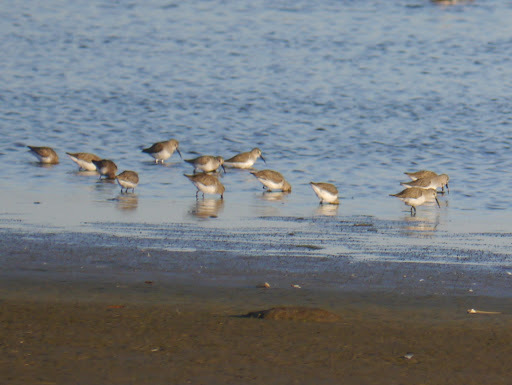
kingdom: Animalia
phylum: Chordata
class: Aves
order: Charadriiformes
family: Scolopacidae
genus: Calidris
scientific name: Calidris alpina
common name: Dunlin
